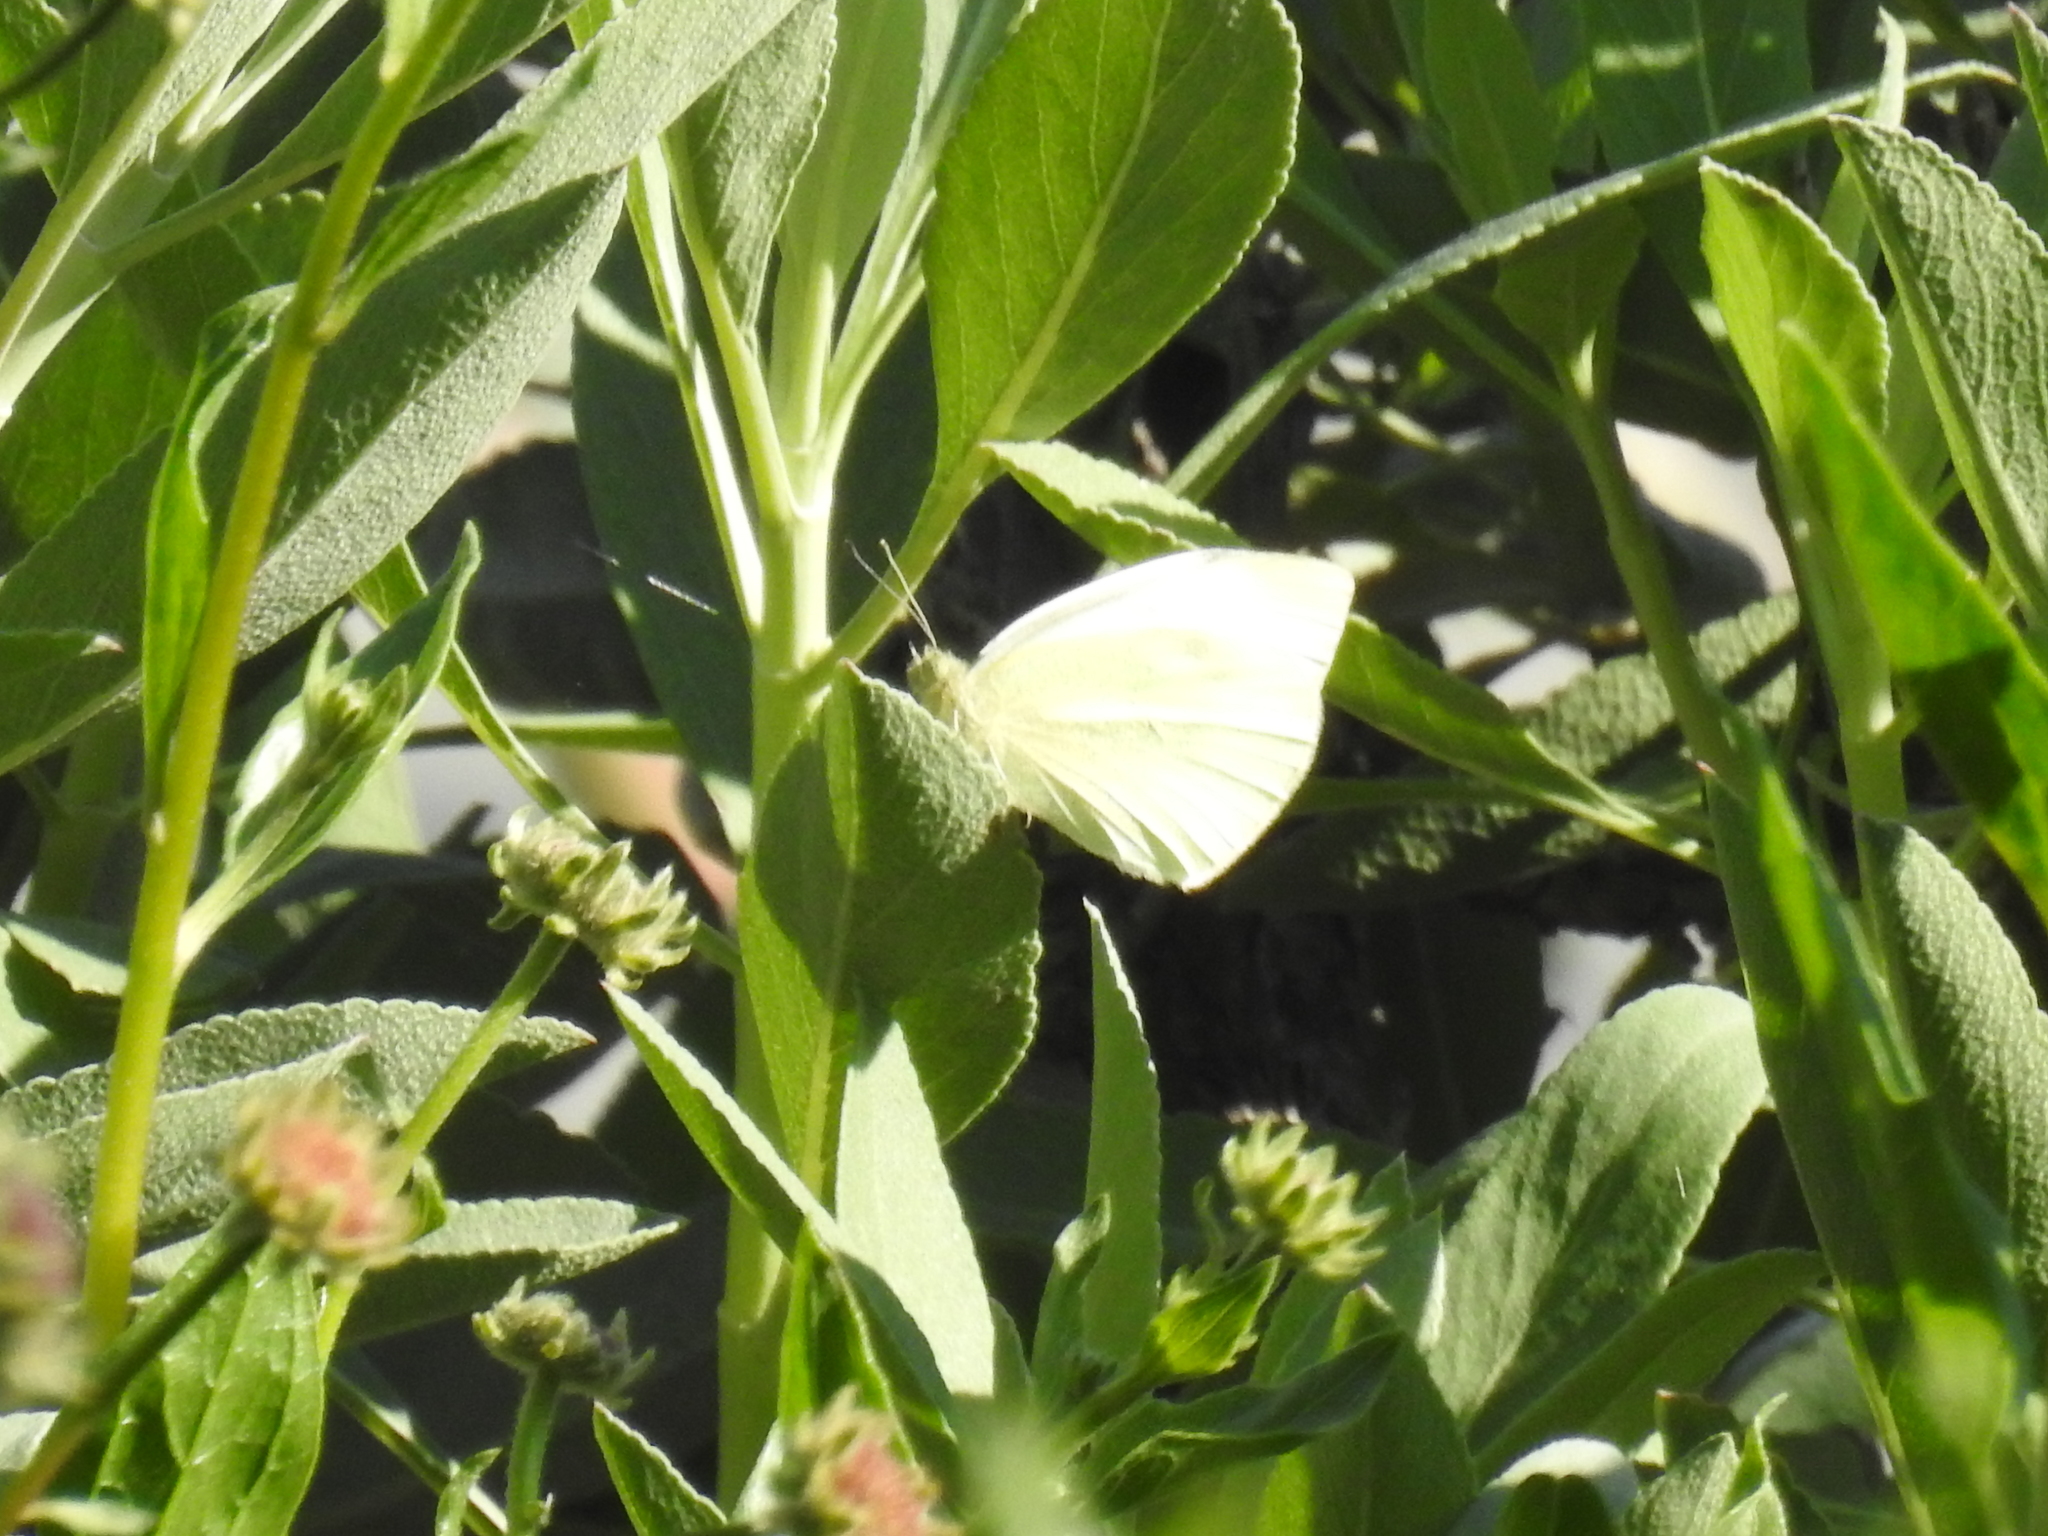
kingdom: Animalia
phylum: Arthropoda
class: Insecta
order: Lepidoptera
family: Pieridae
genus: Pieris
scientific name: Pieris rapae
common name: Small white
